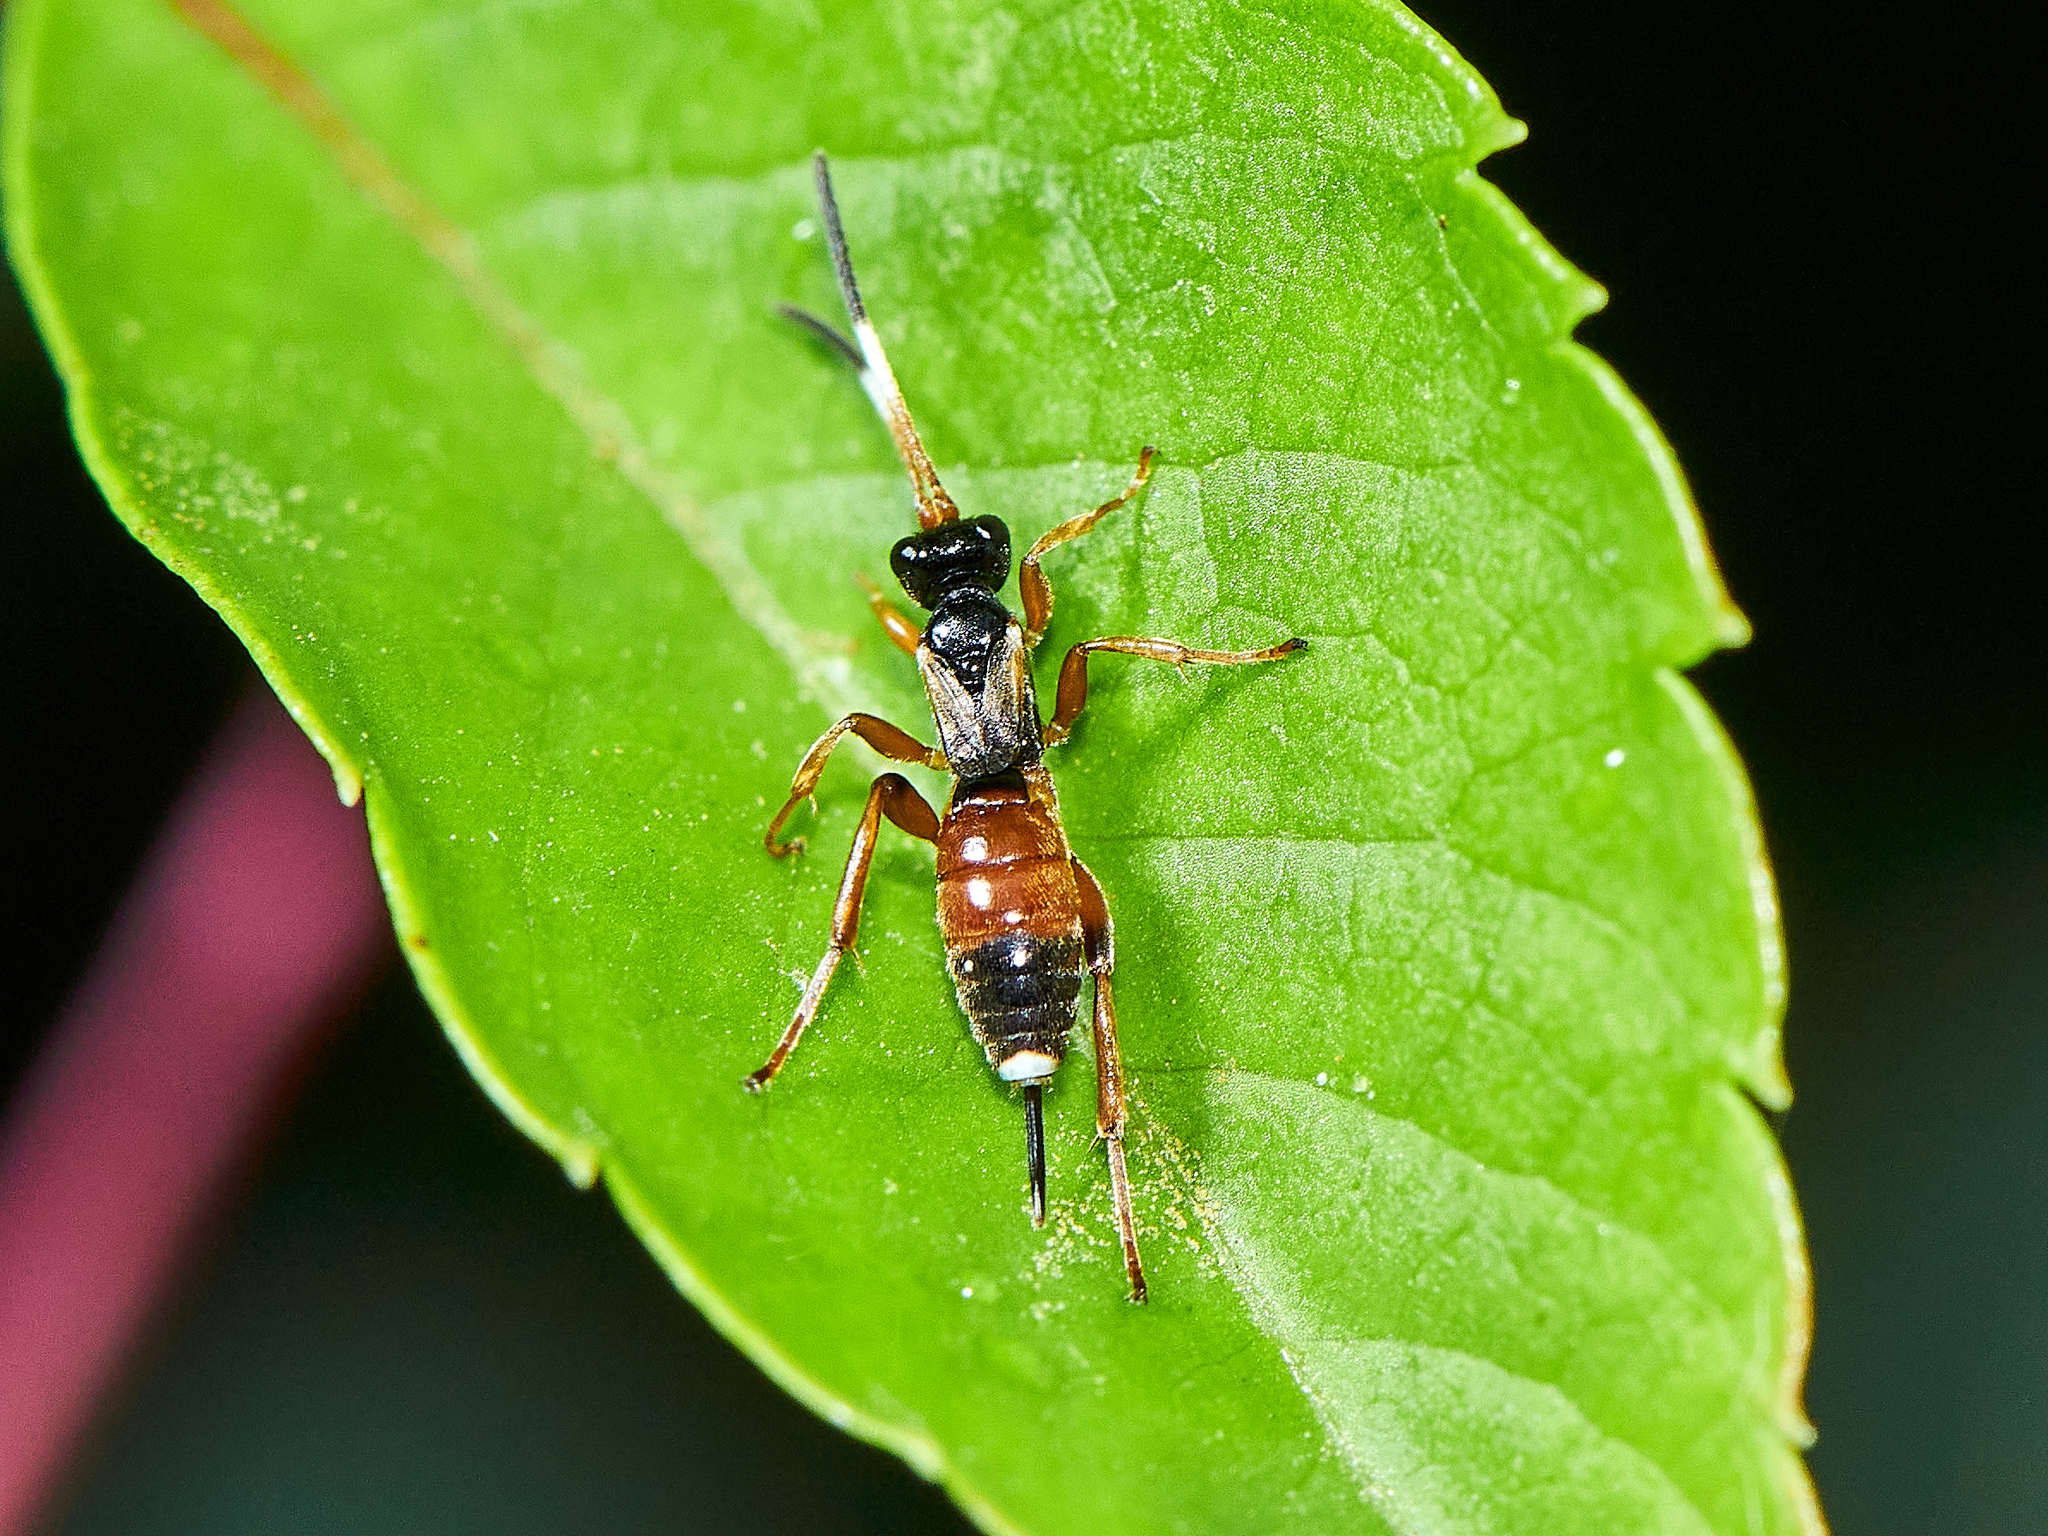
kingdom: Animalia
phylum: Arthropoda
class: Insecta
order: Hymenoptera
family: Ichneumonidae
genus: Pleolophus
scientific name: Pleolophus brachypterus
